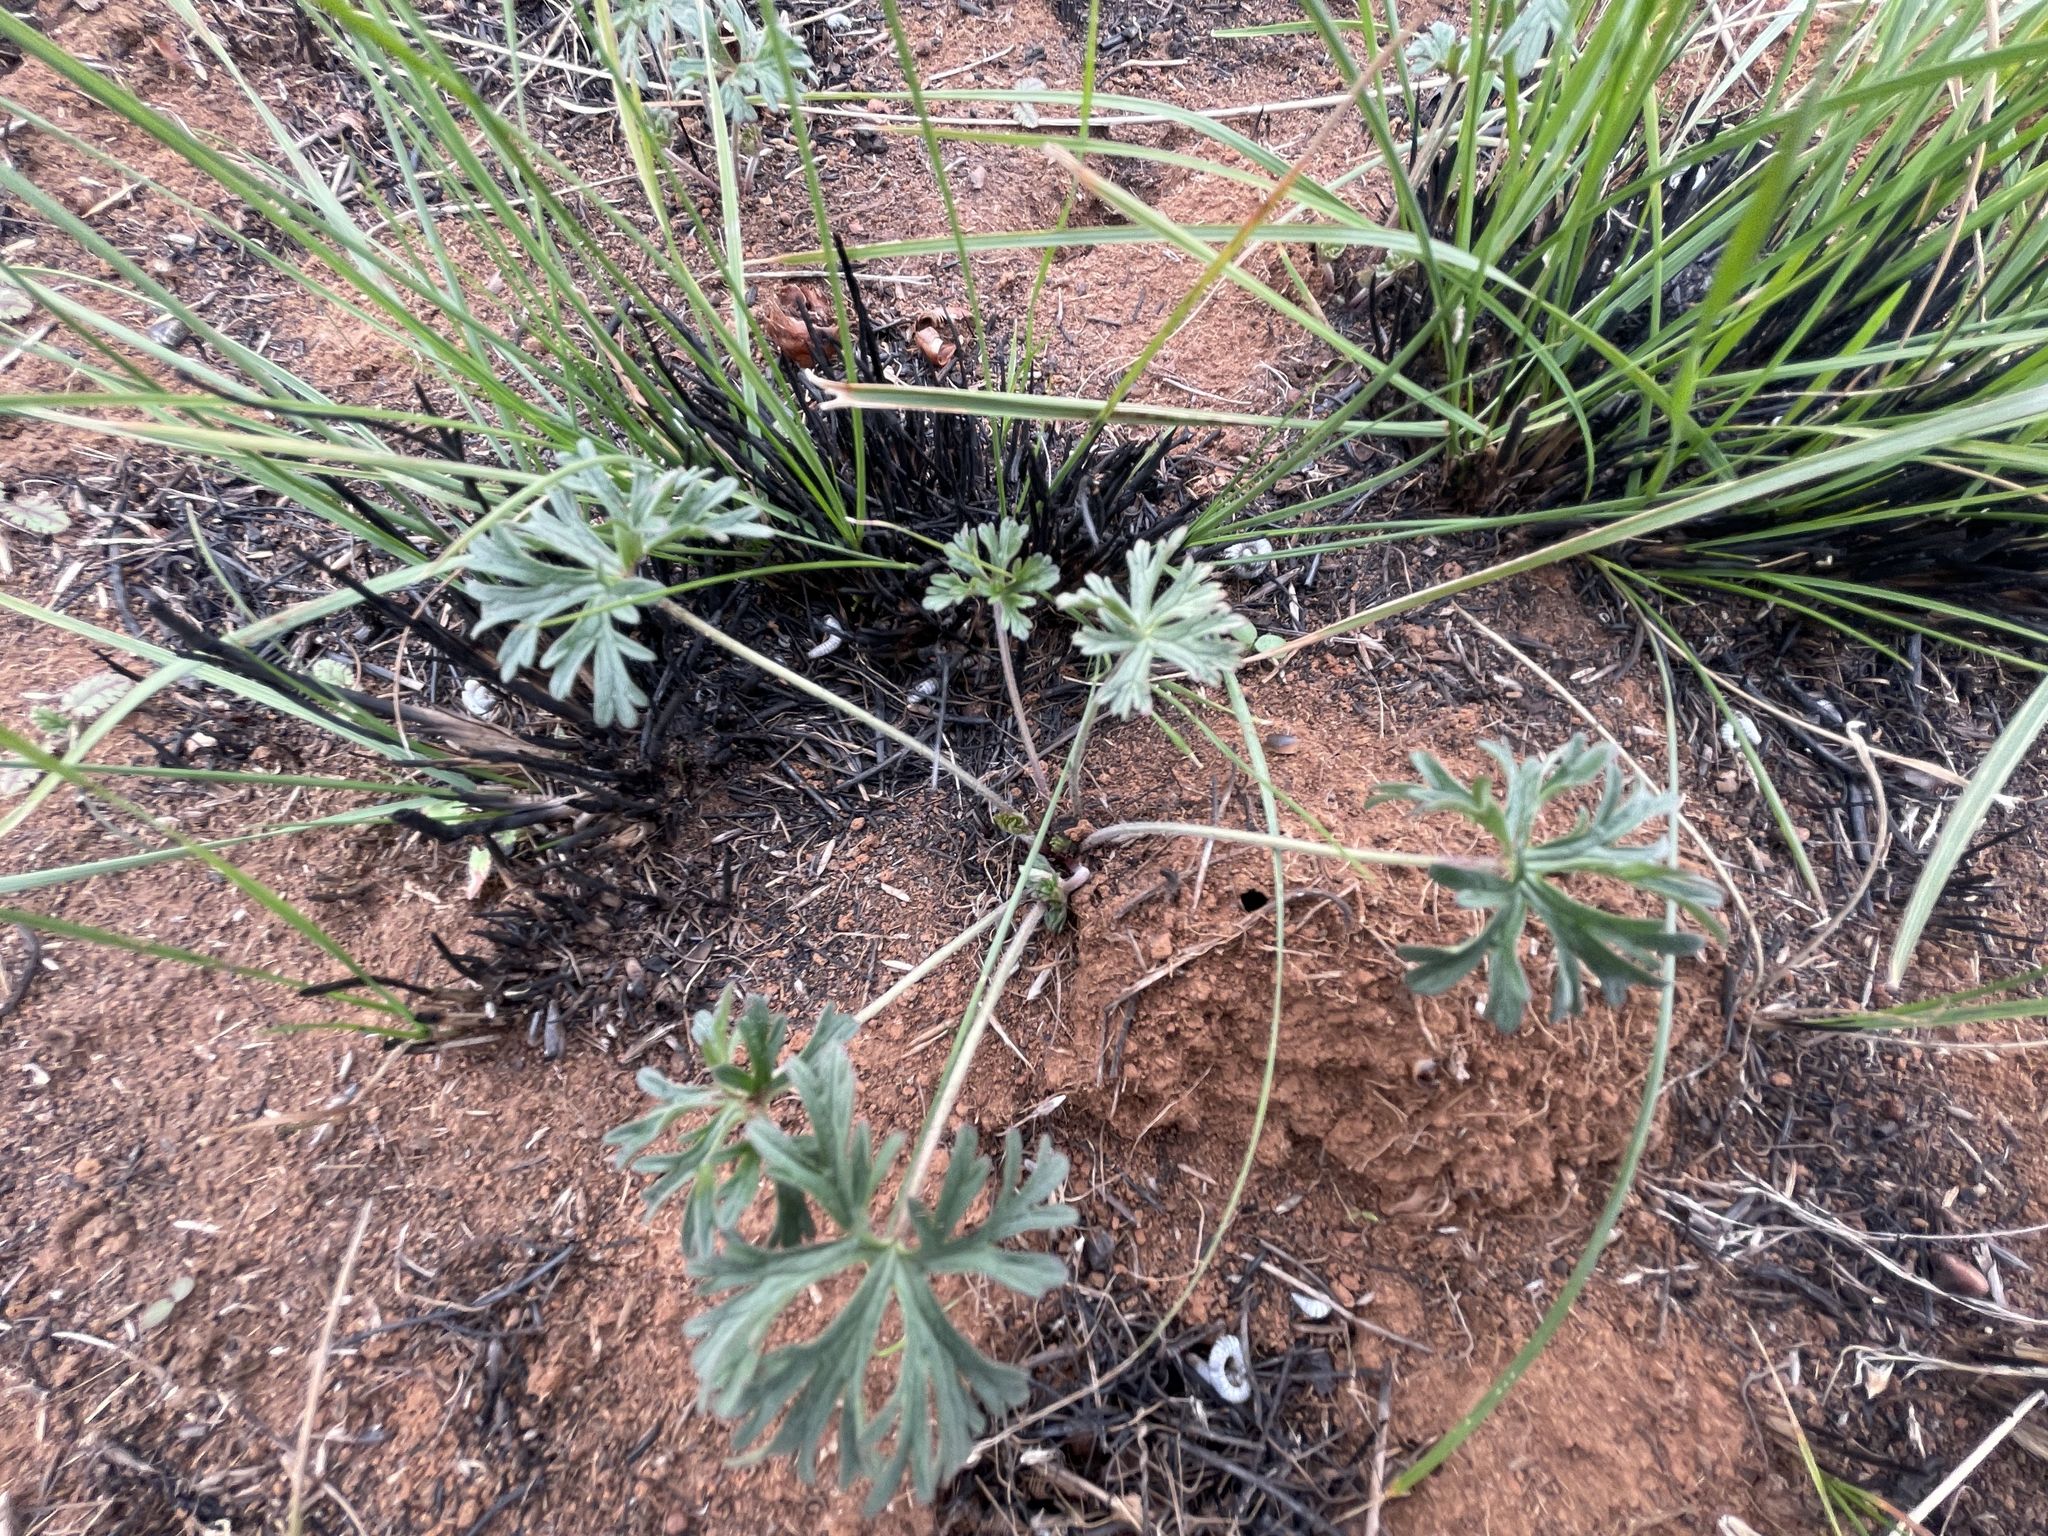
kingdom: Plantae
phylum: Tracheophyta
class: Magnoliopsida
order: Geraniales
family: Geraniaceae
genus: Geranium
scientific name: Geranium retrorsum
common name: New zealand geranium
